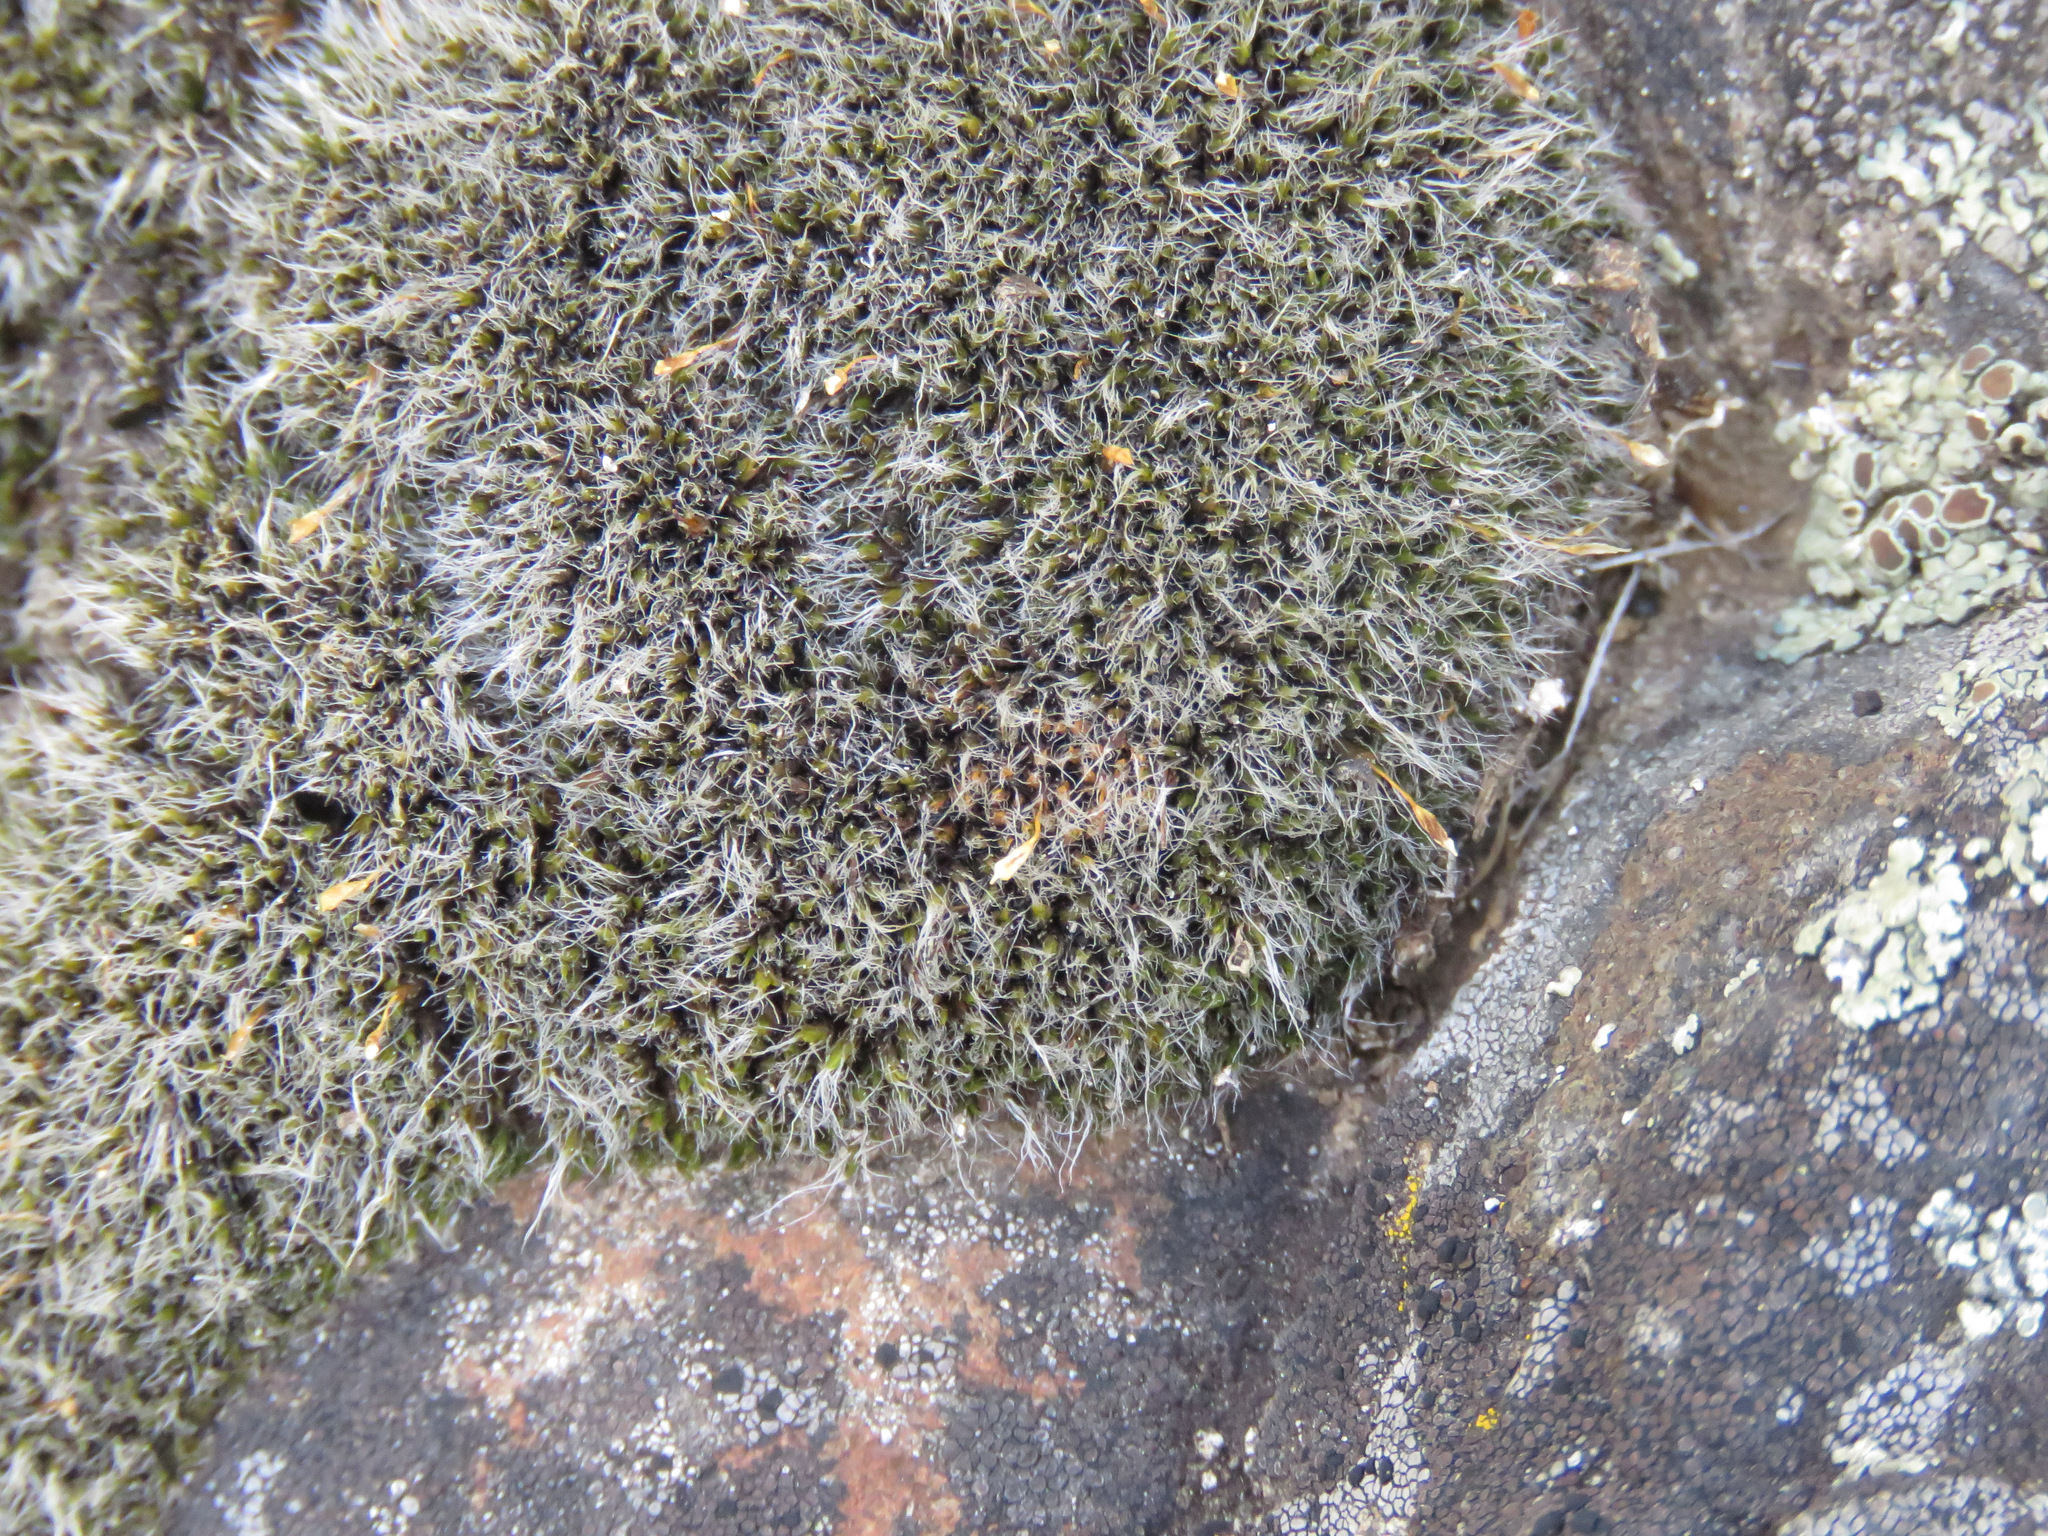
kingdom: Plantae
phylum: Bryophyta
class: Bryopsida
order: Grimmiales
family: Grimmiaceae
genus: Racomitrium
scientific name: Racomitrium lanuginosum
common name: Hoary rock moss
